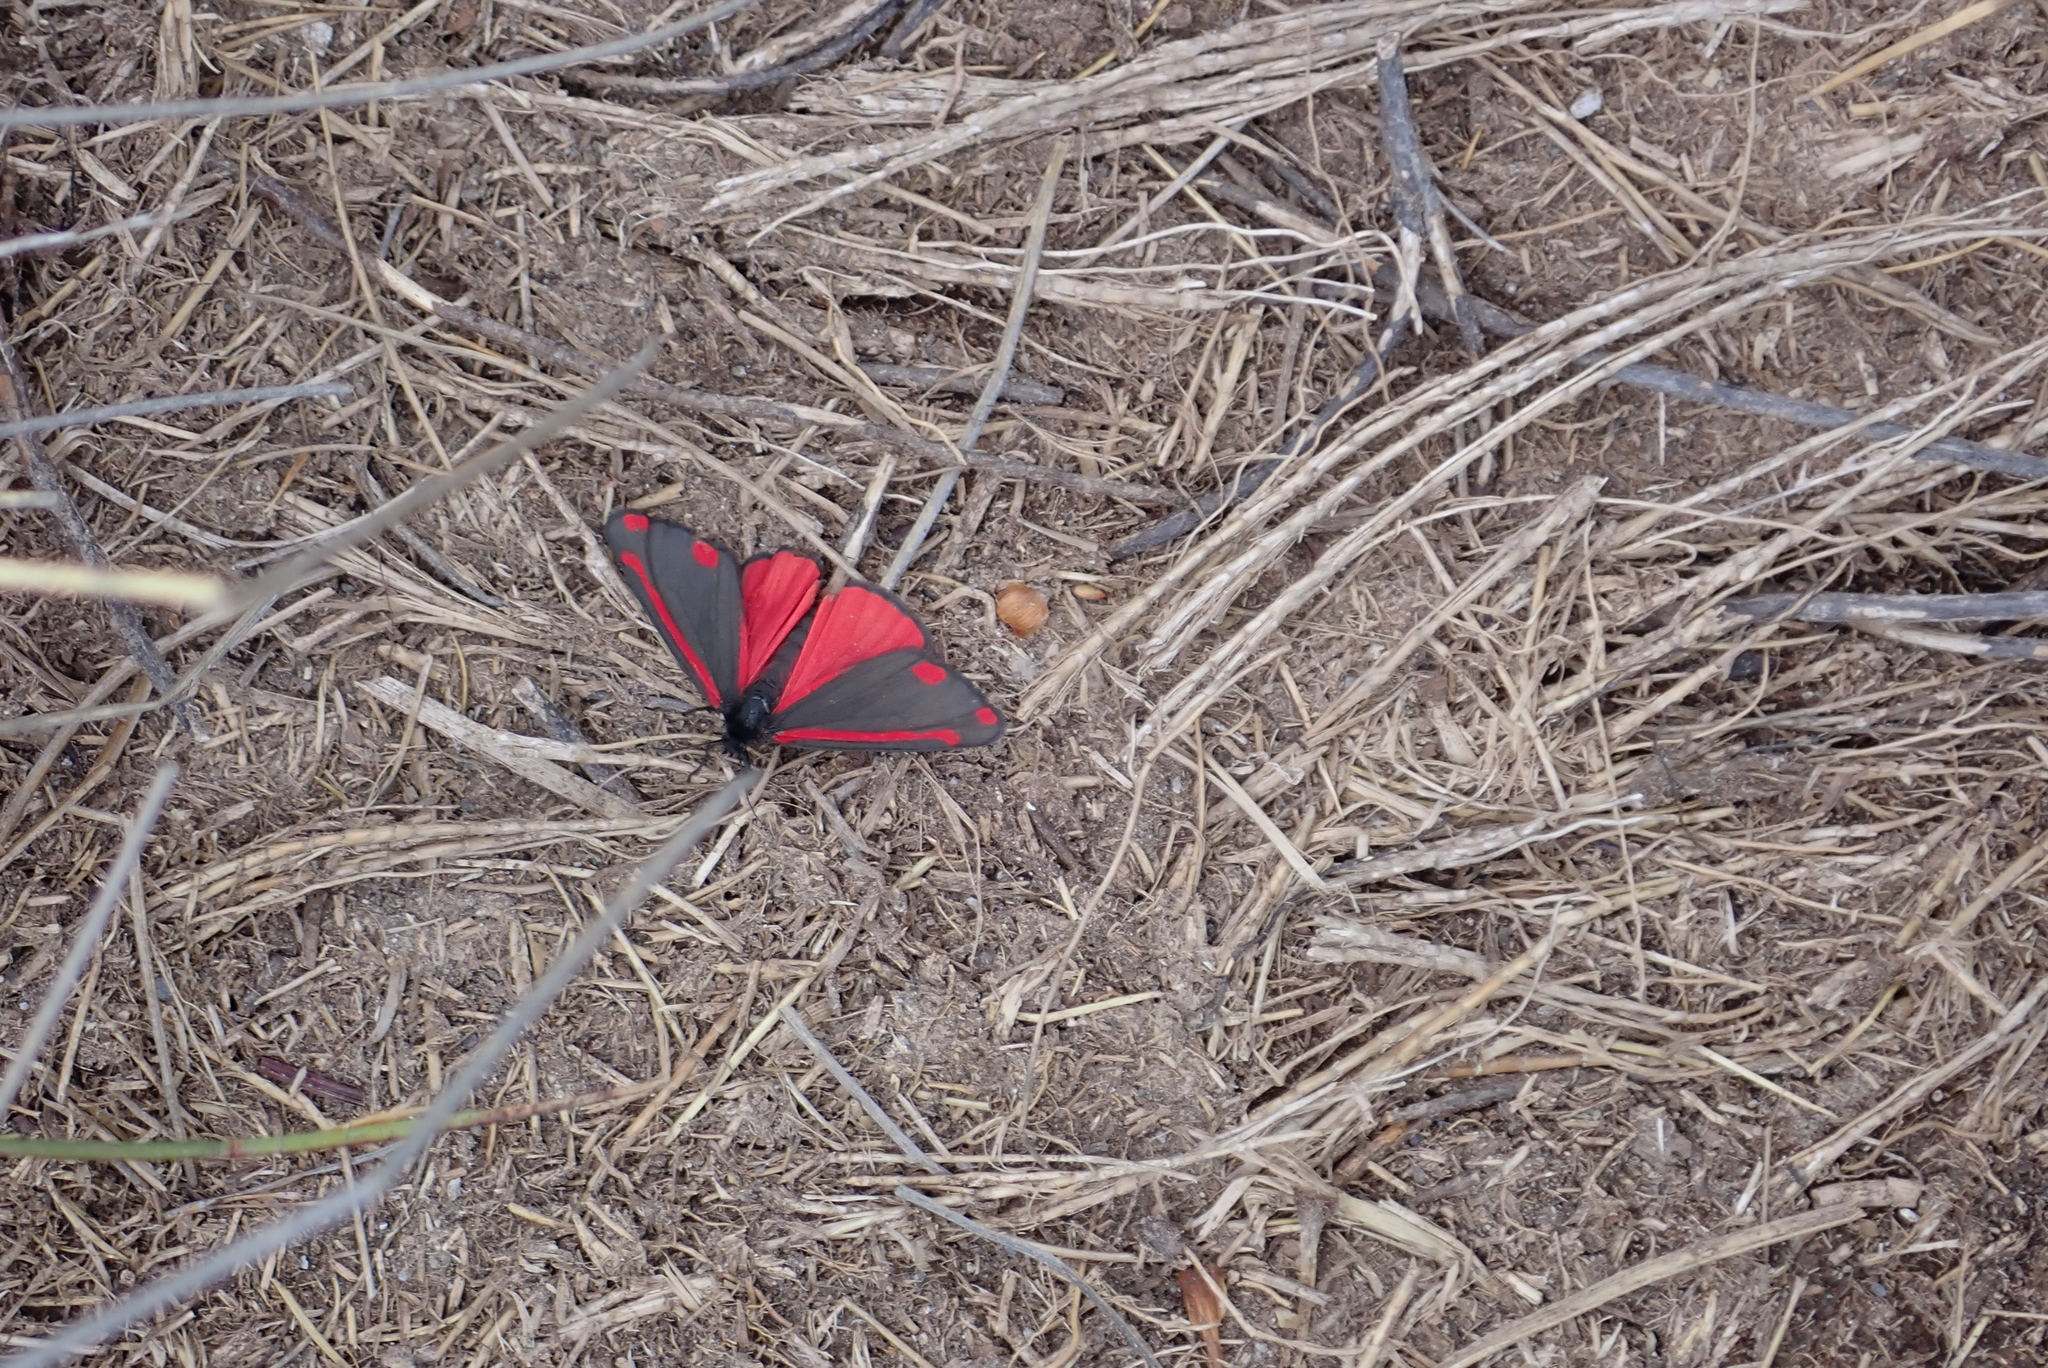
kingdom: Animalia
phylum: Arthropoda
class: Insecta
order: Lepidoptera
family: Erebidae
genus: Tyria
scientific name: Tyria jacobaeae
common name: Cinnabar
